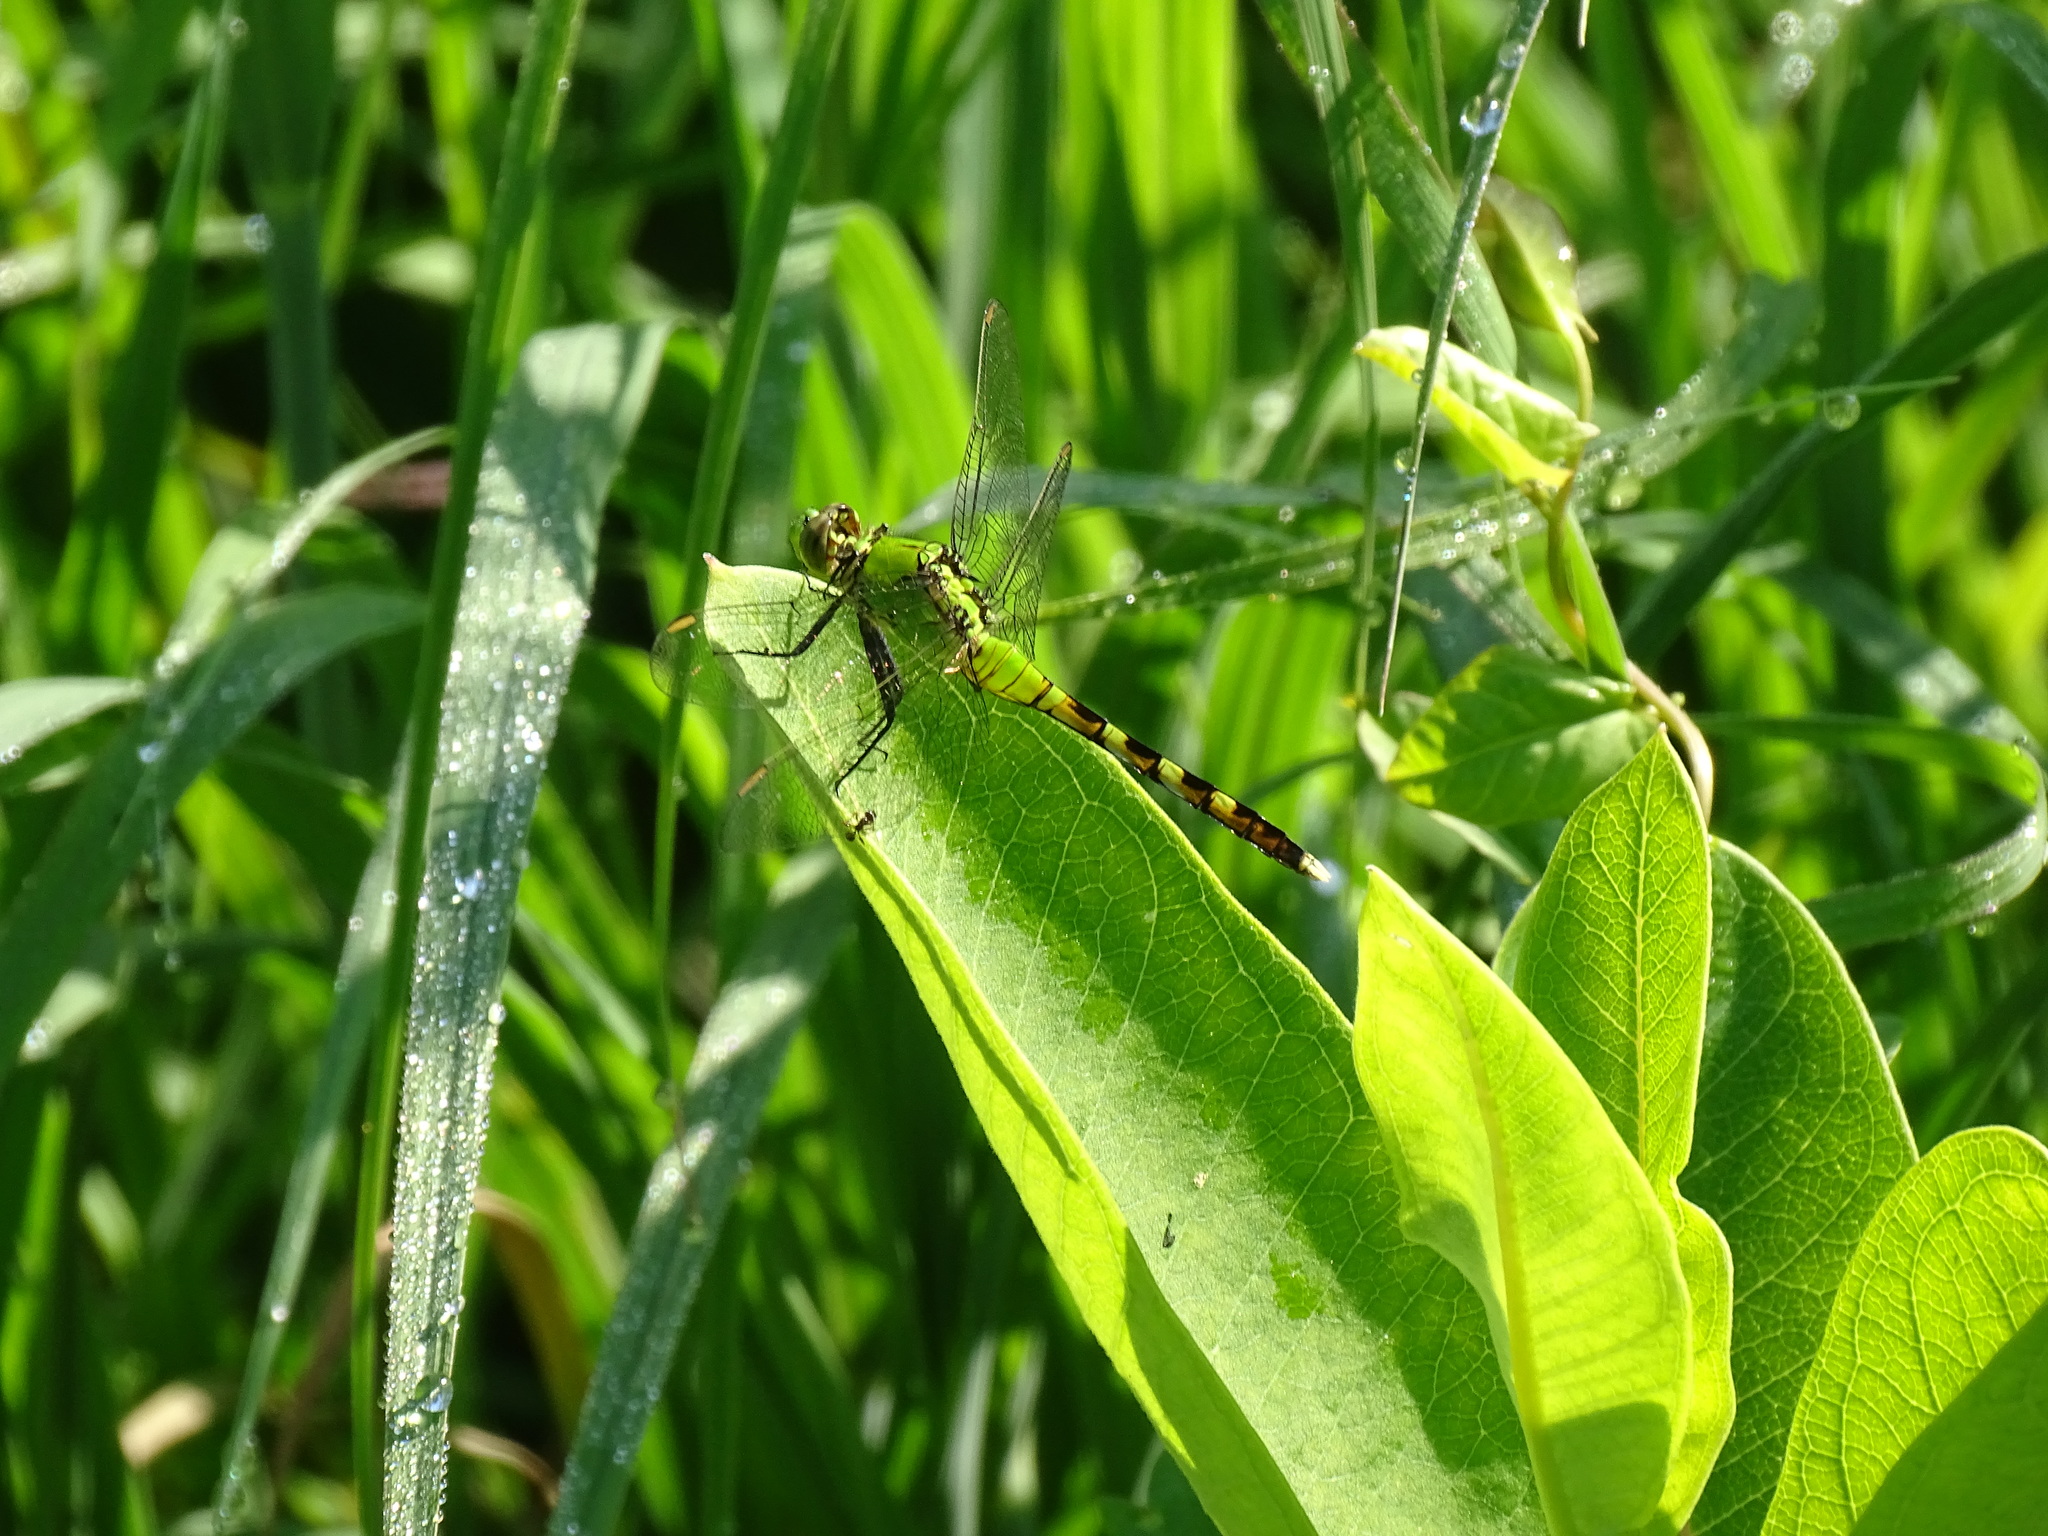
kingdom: Animalia
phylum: Arthropoda
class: Insecta
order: Odonata
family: Libellulidae
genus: Erythemis
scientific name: Erythemis simplicicollis
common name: Eastern pondhawk
